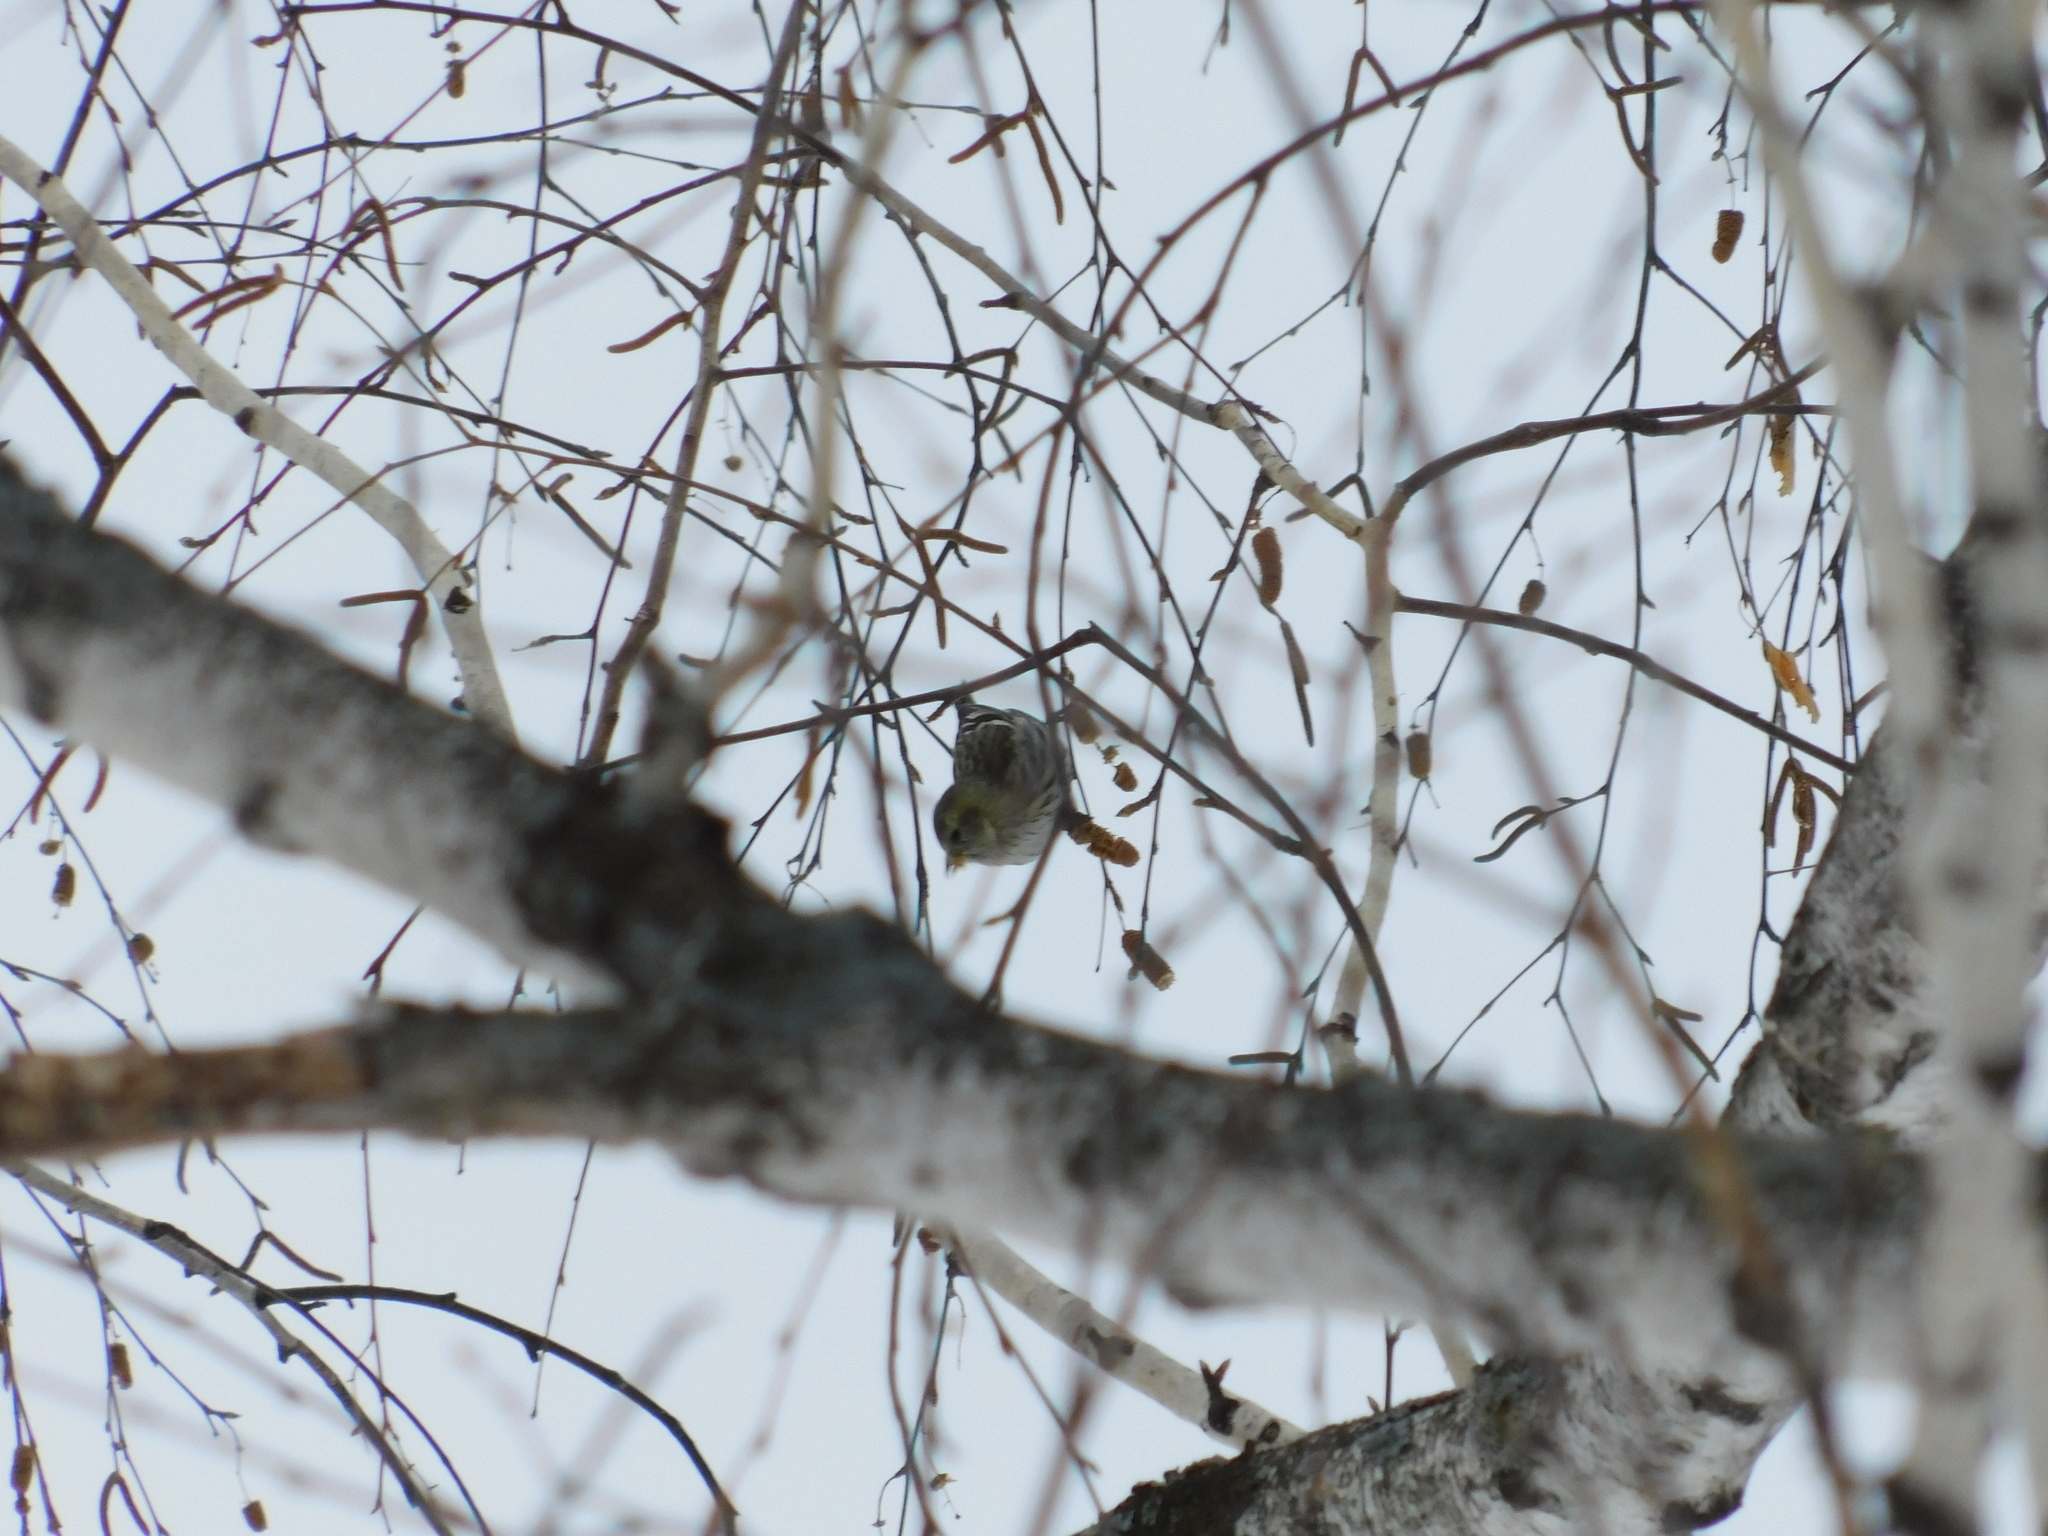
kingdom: Animalia
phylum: Chordata
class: Aves
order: Passeriformes
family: Fringillidae
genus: Spinus
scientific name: Spinus spinus
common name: Eurasian siskin
